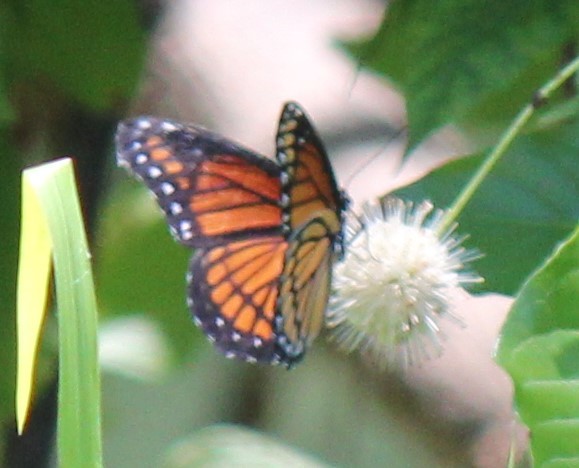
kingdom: Animalia
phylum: Arthropoda
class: Insecta
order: Lepidoptera
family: Nymphalidae
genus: Limenitis
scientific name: Limenitis archippus
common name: Viceroy
